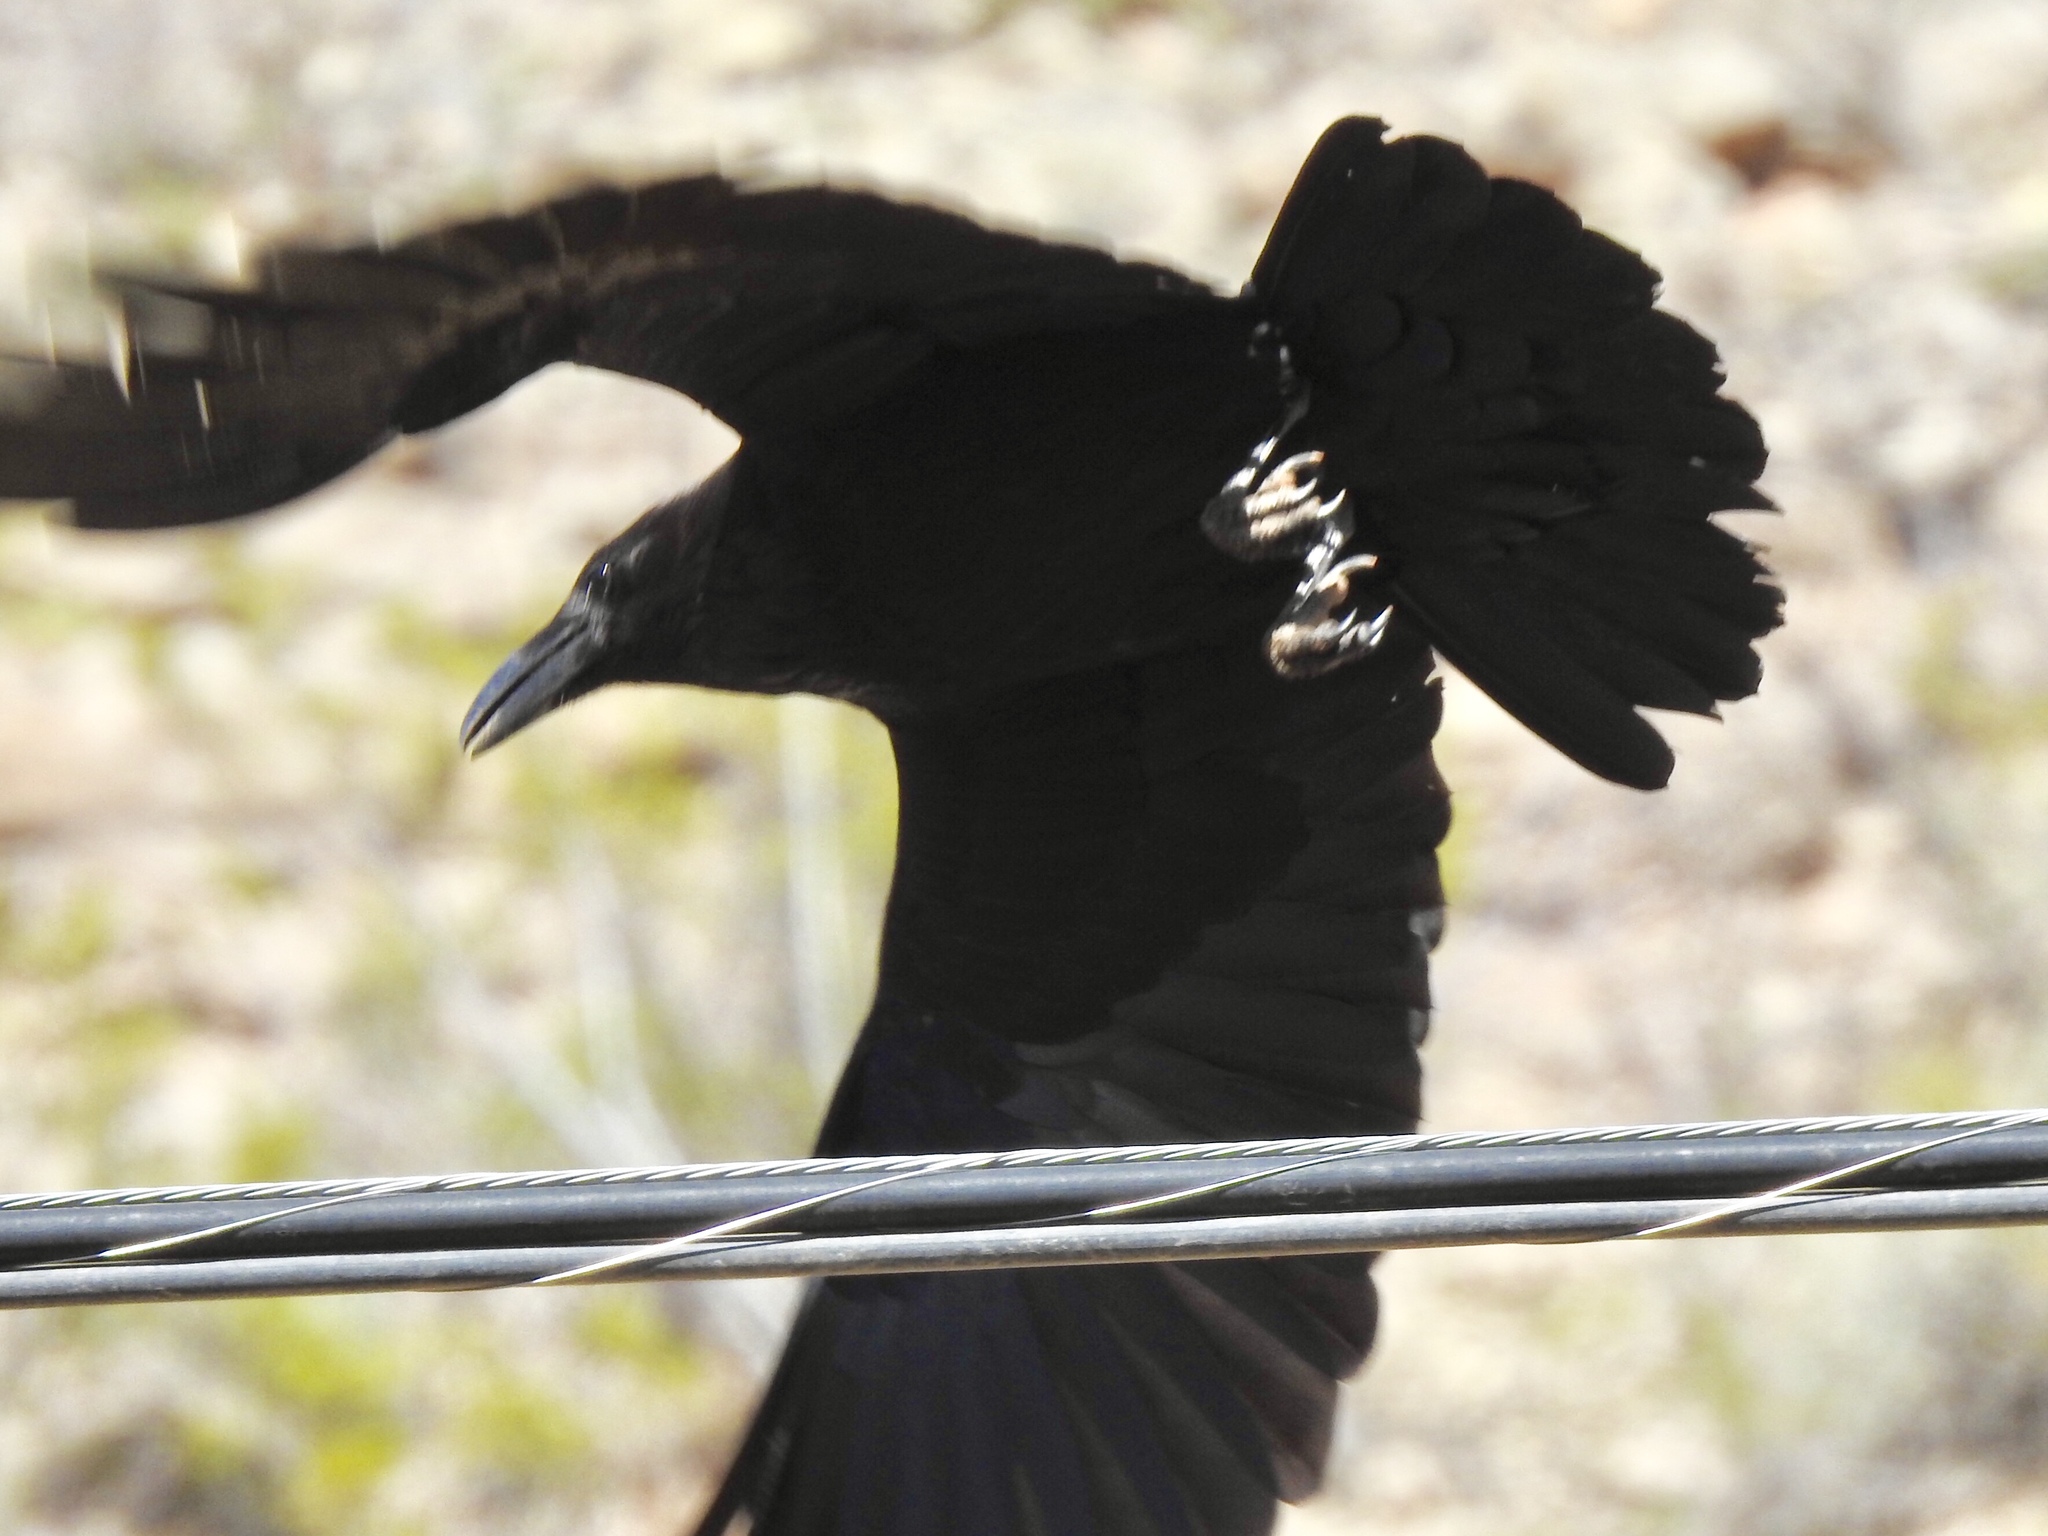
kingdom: Animalia
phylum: Chordata
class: Aves
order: Passeriformes
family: Corvidae
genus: Corvus
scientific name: Corvus corax
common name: Common raven
